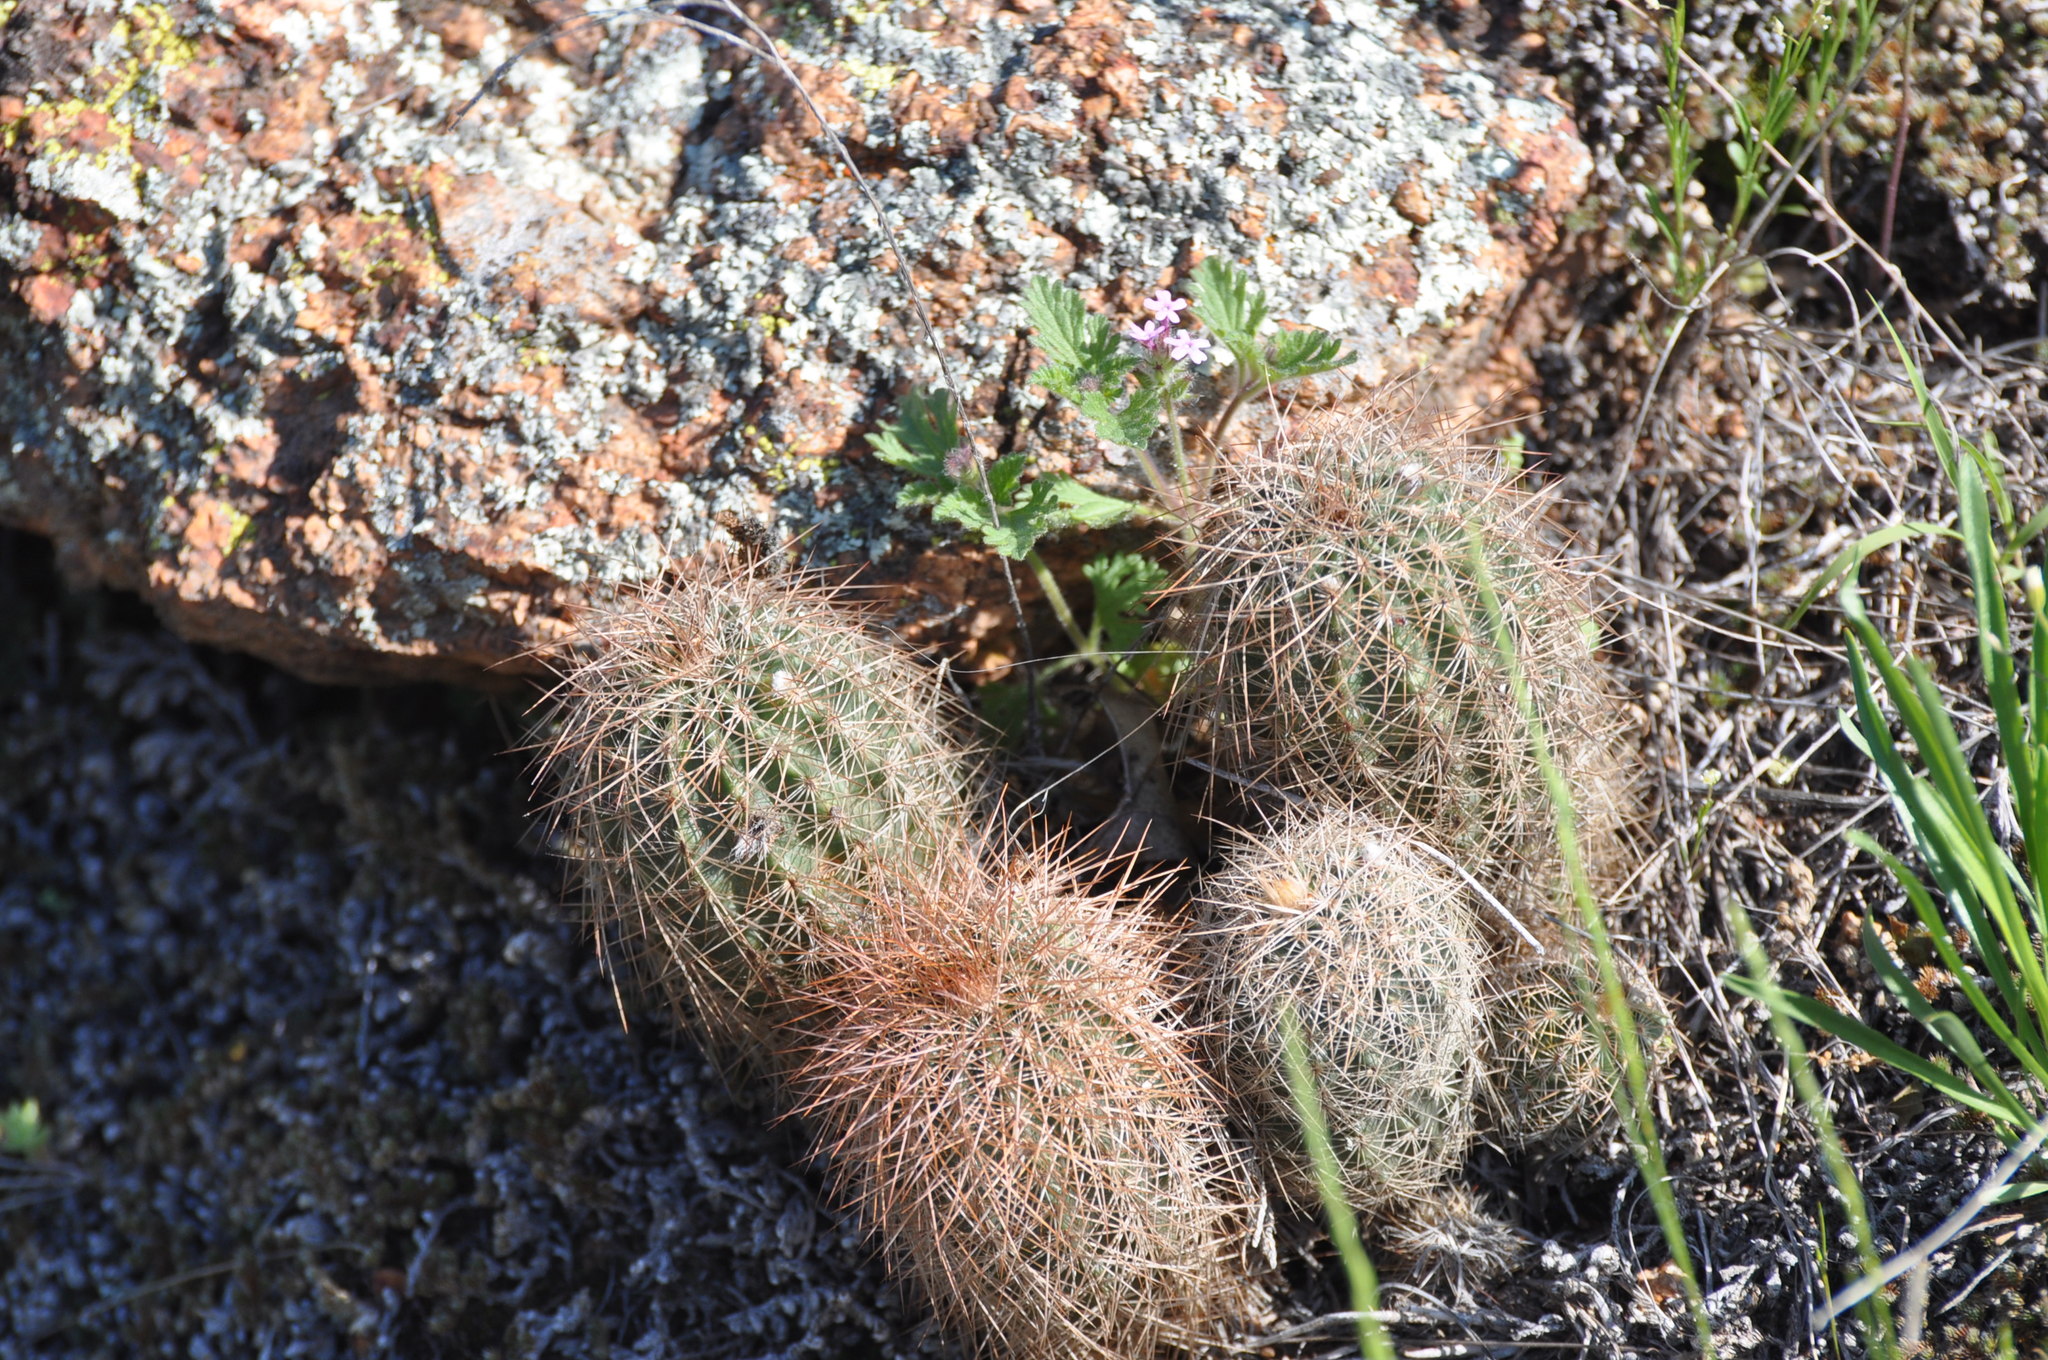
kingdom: Plantae
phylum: Tracheophyta
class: Magnoliopsida
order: Caryophyllales
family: Cactaceae
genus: Echinocereus
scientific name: Echinocereus reichenbachii
